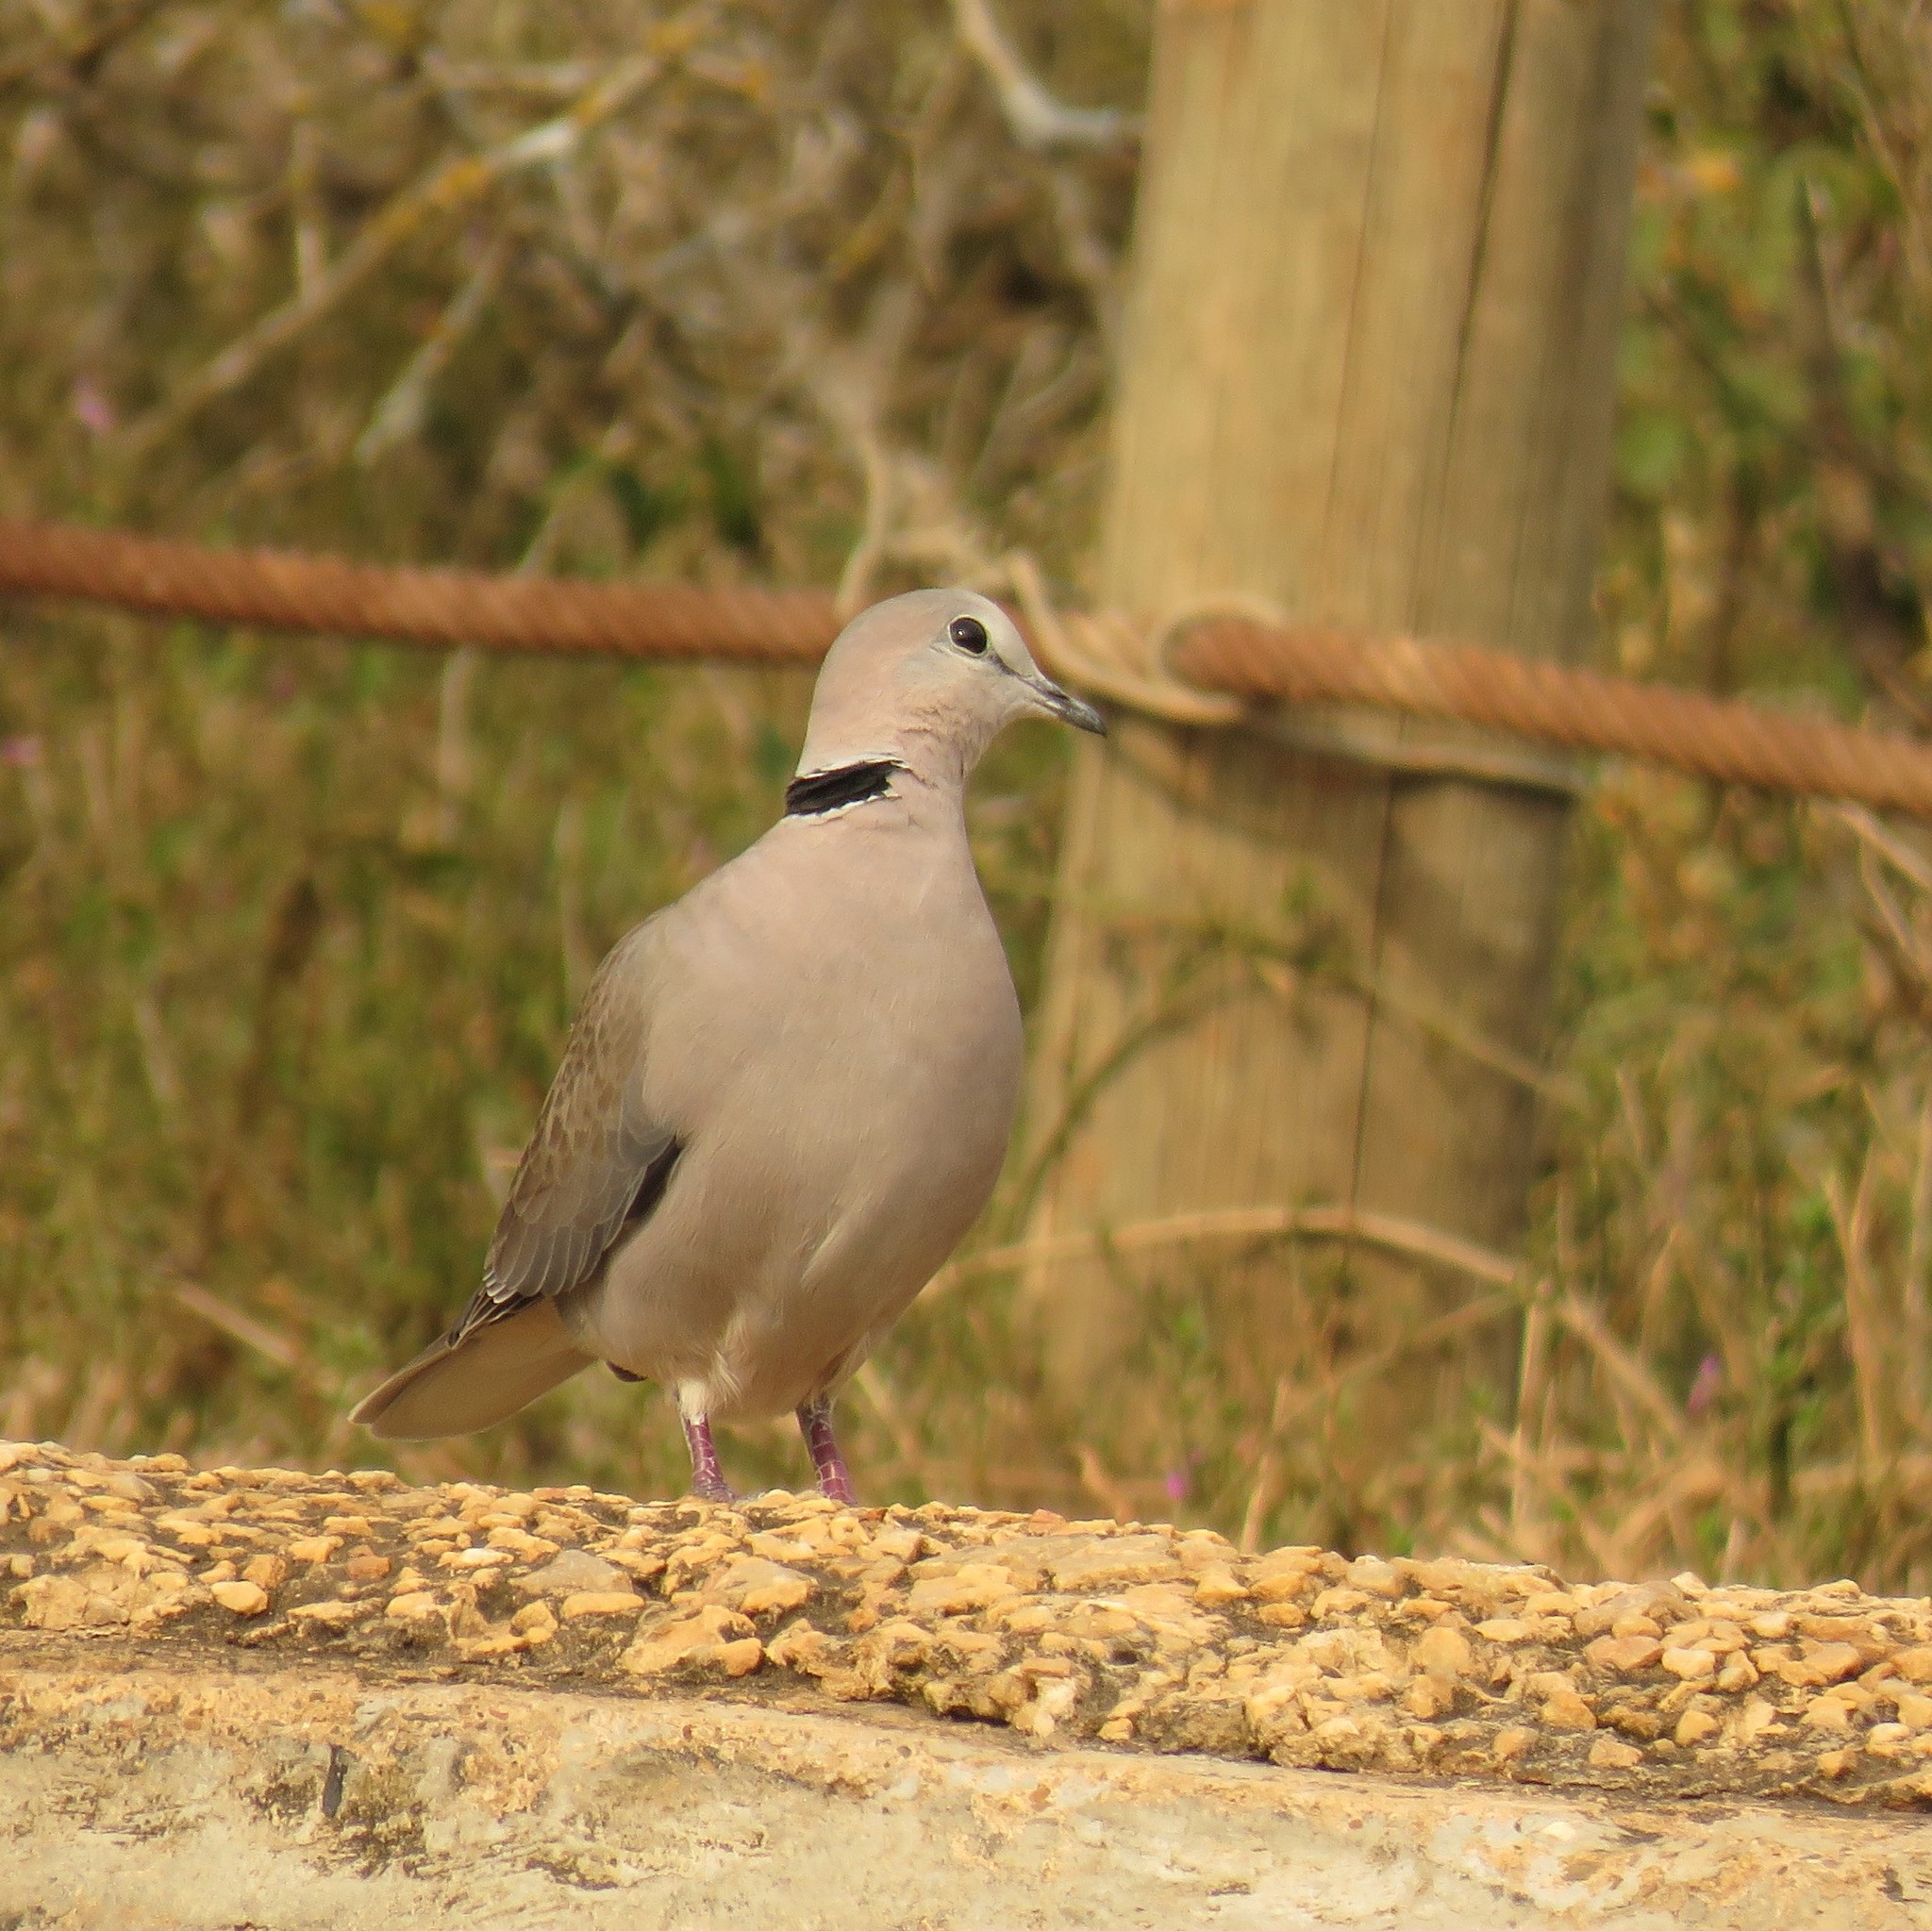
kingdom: Animalia
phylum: Chordata
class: Aves
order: Columbiformes
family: Columbidae
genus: Streptopelia
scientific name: Streptopelia capicola
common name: Ring-necked dove
